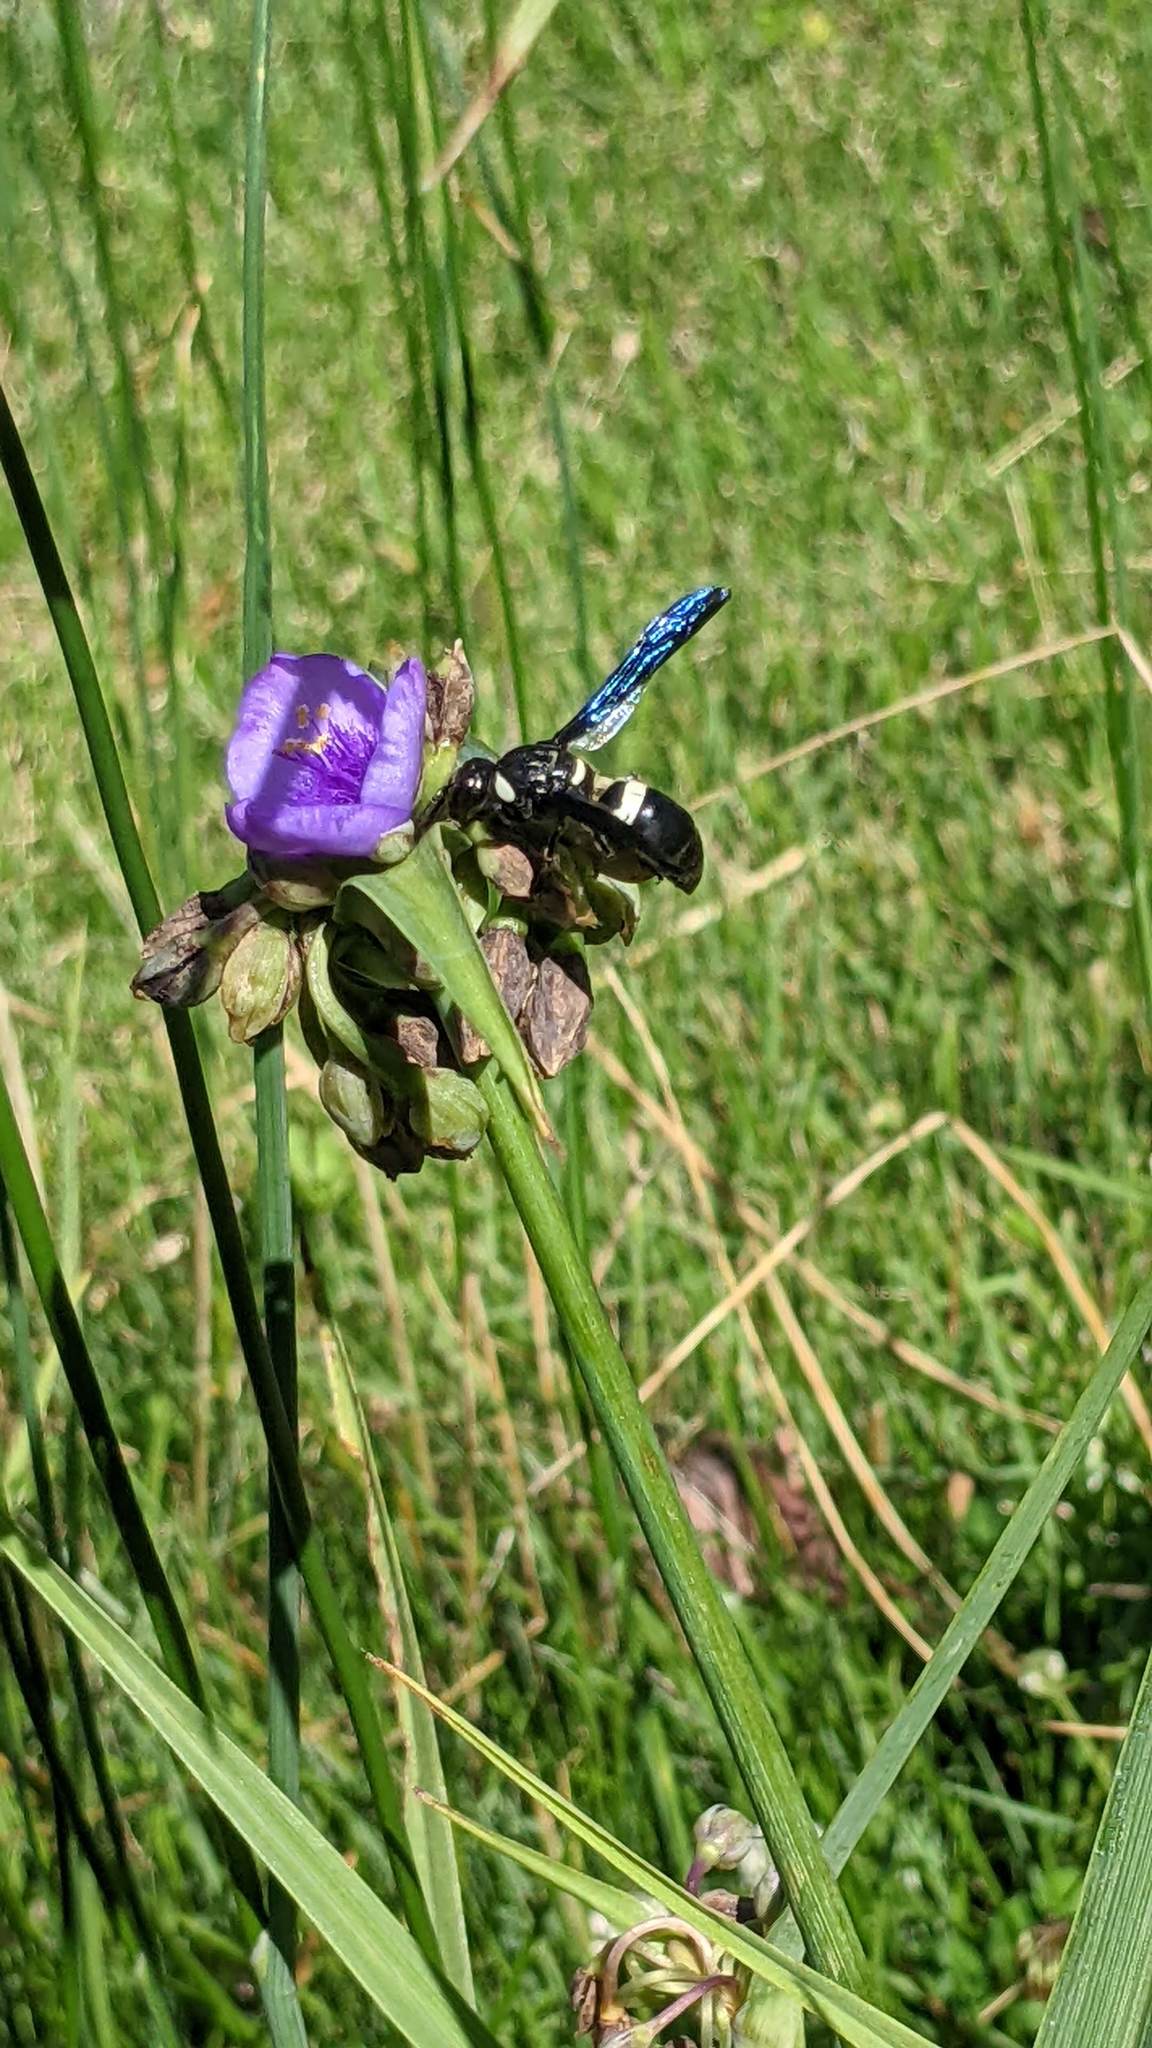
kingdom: Animalia
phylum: Arthropoda
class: Insecta
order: Hymenoptera
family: Eumenidae
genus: Monobia
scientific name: Monobia quadridens
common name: Four-toothed mason wasp
